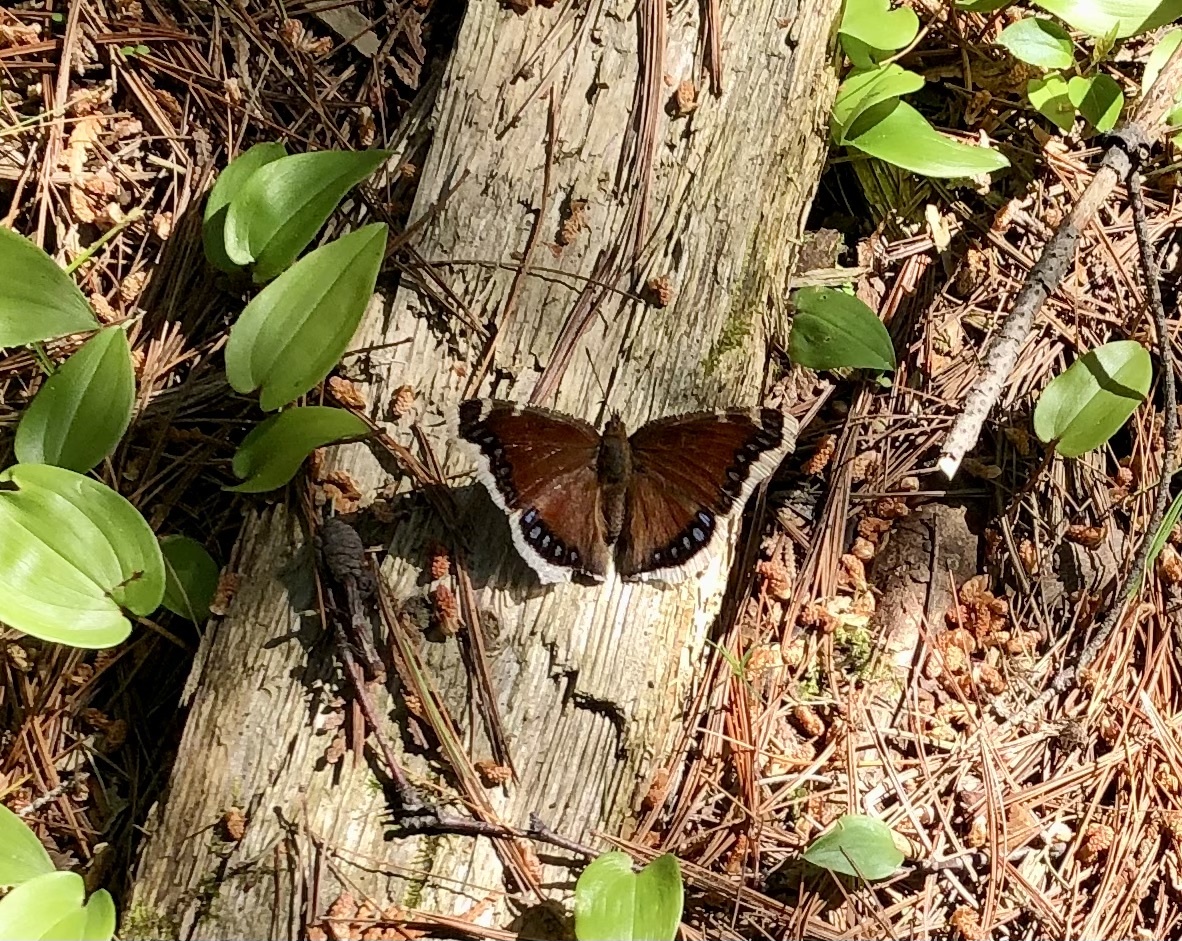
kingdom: Animalia
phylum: Arthropoda
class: Insecta
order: Lepidoptera
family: Nymphalidae
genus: Nymphalis
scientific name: Nymphalis antiopa
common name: Camberwell beauty
